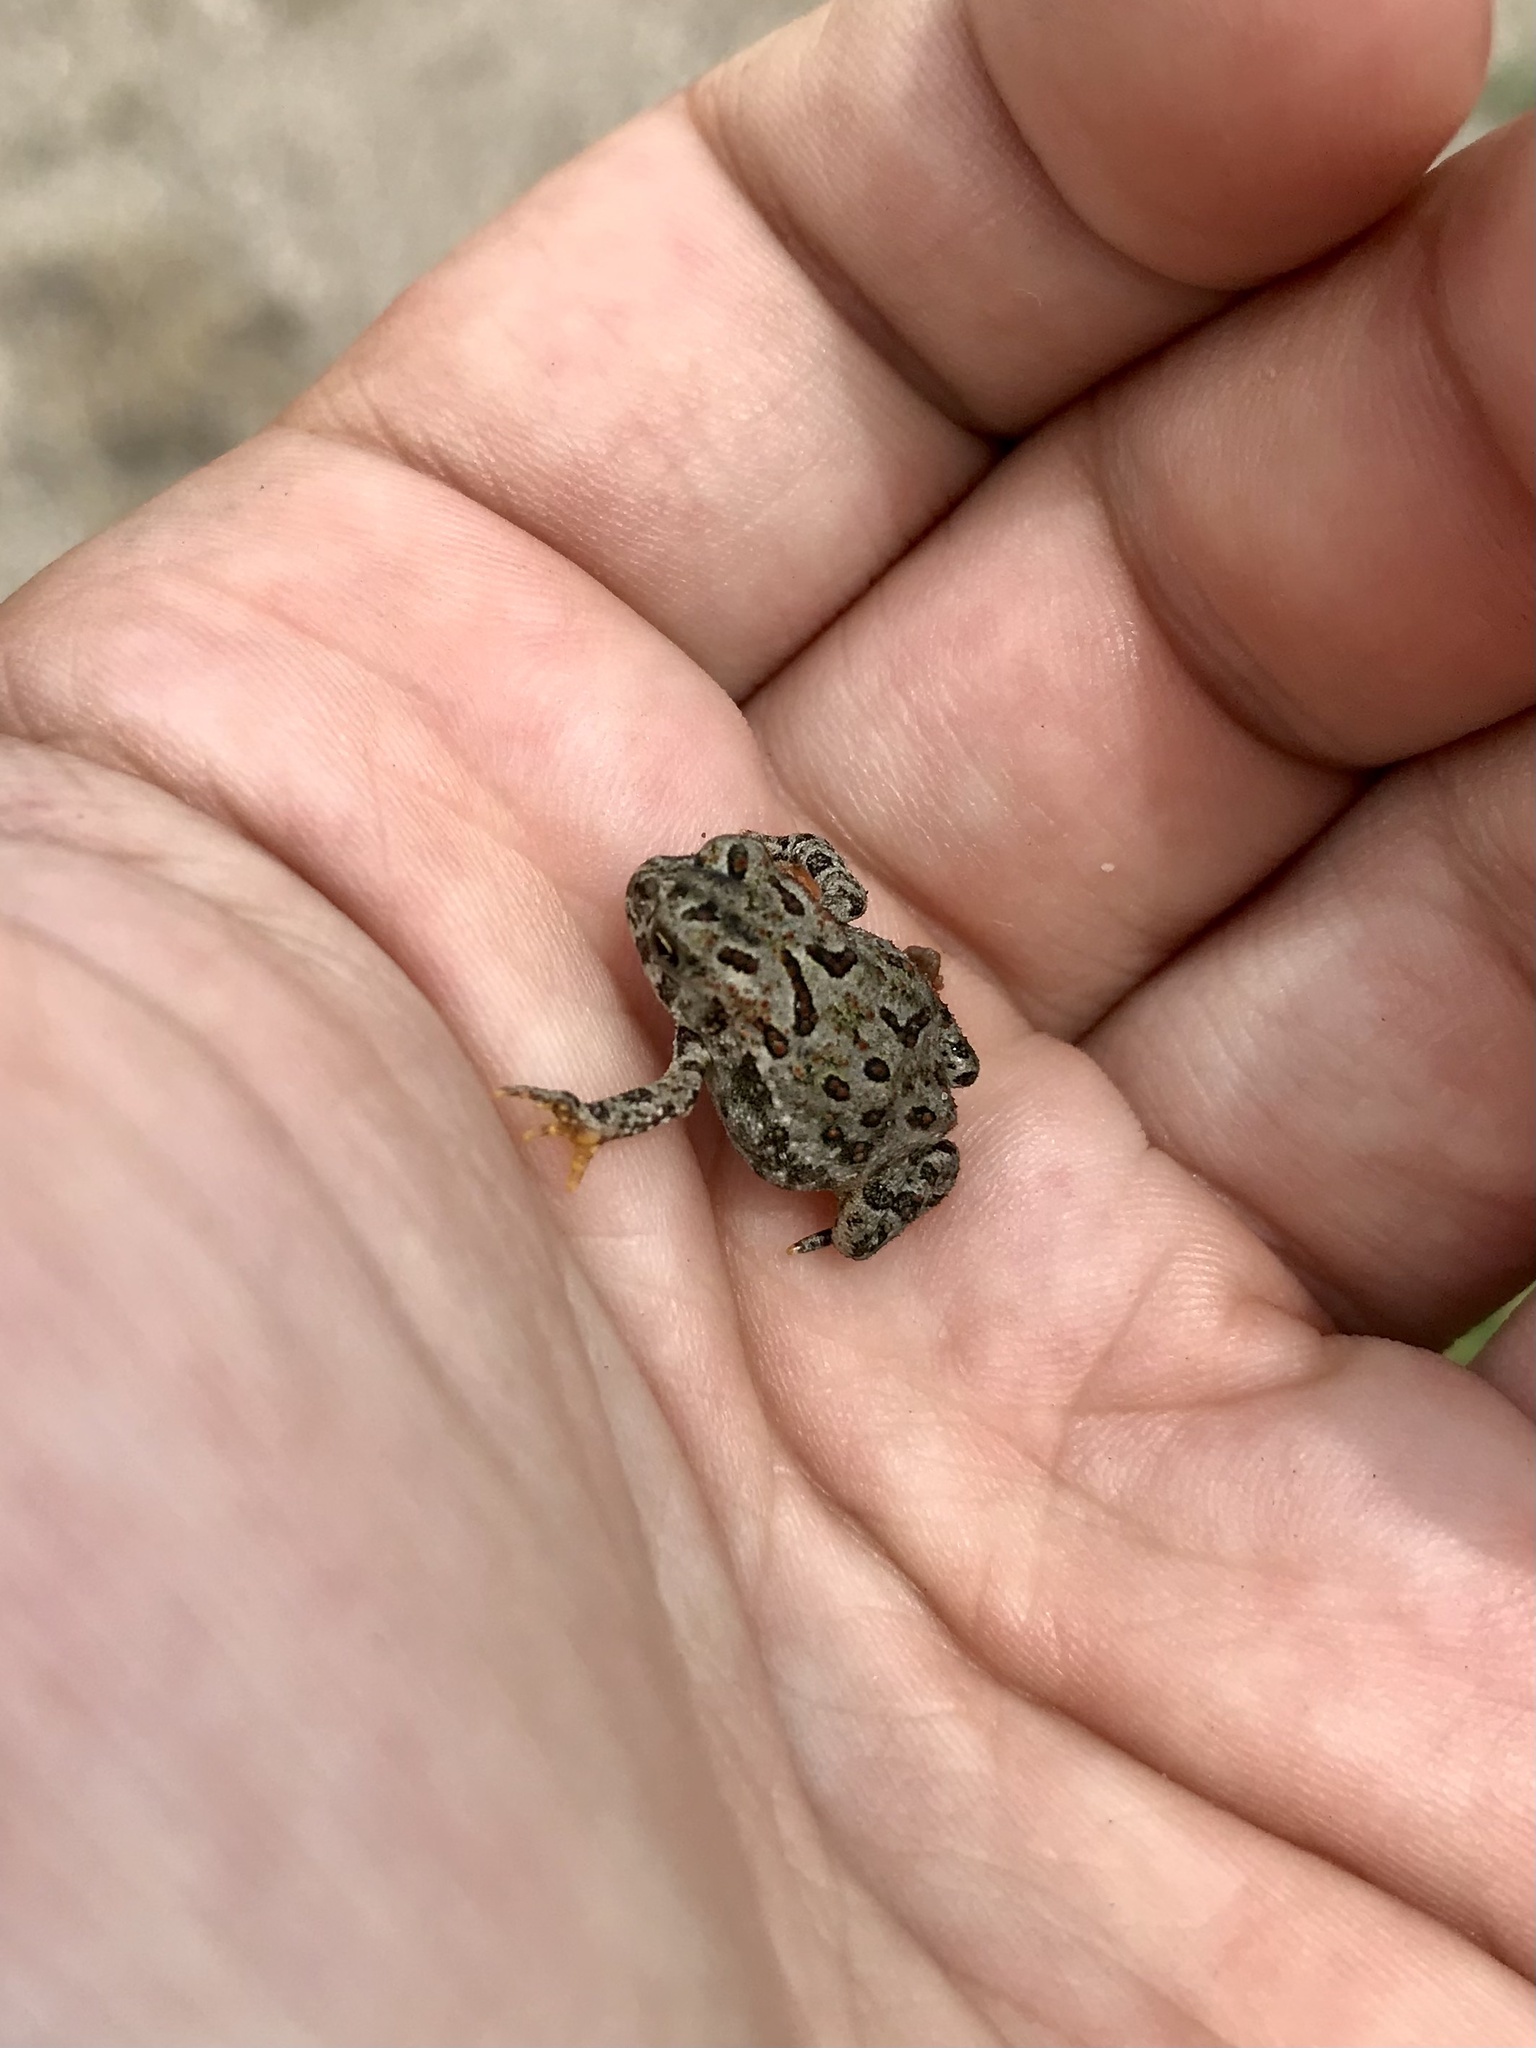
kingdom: Animalia
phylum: Chordata
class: Amphibia
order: Anura
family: Bufonidae
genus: Anaxyrus
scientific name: Anaxyrus hemiophrys
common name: Canadian toad
